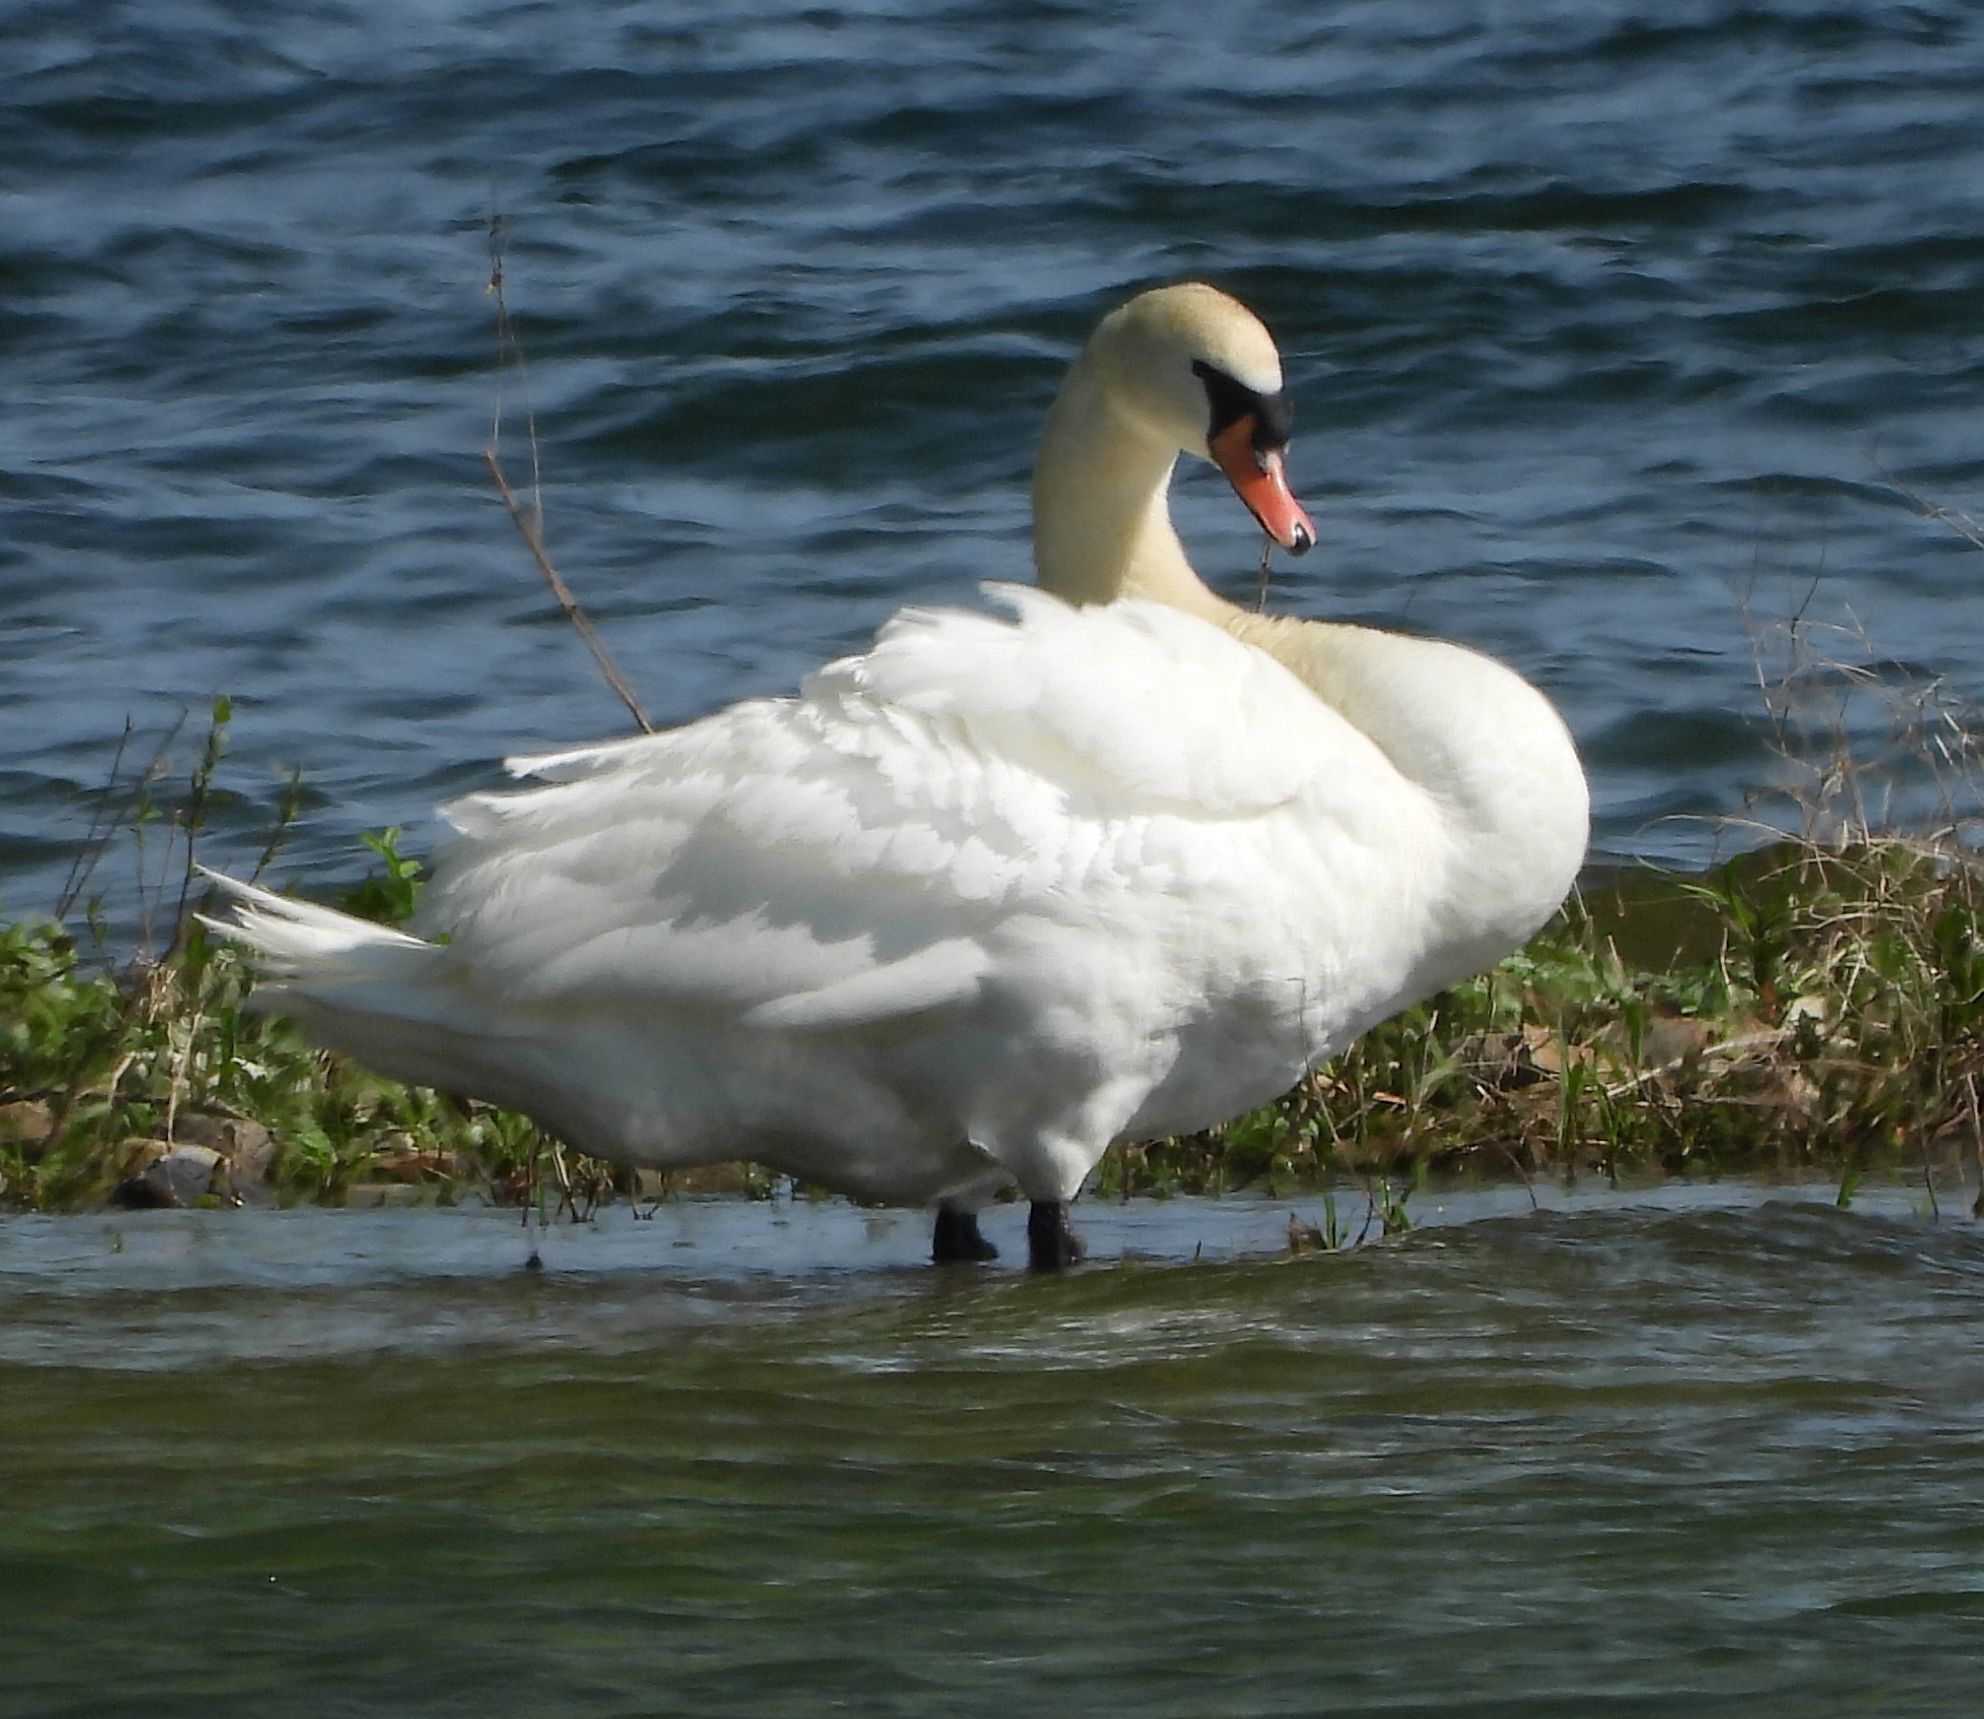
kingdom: Animalia
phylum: Chordata
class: Aves
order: Anseriformes
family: Anatidae
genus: Cygnus
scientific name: Cygnus olor
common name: Mute swan
